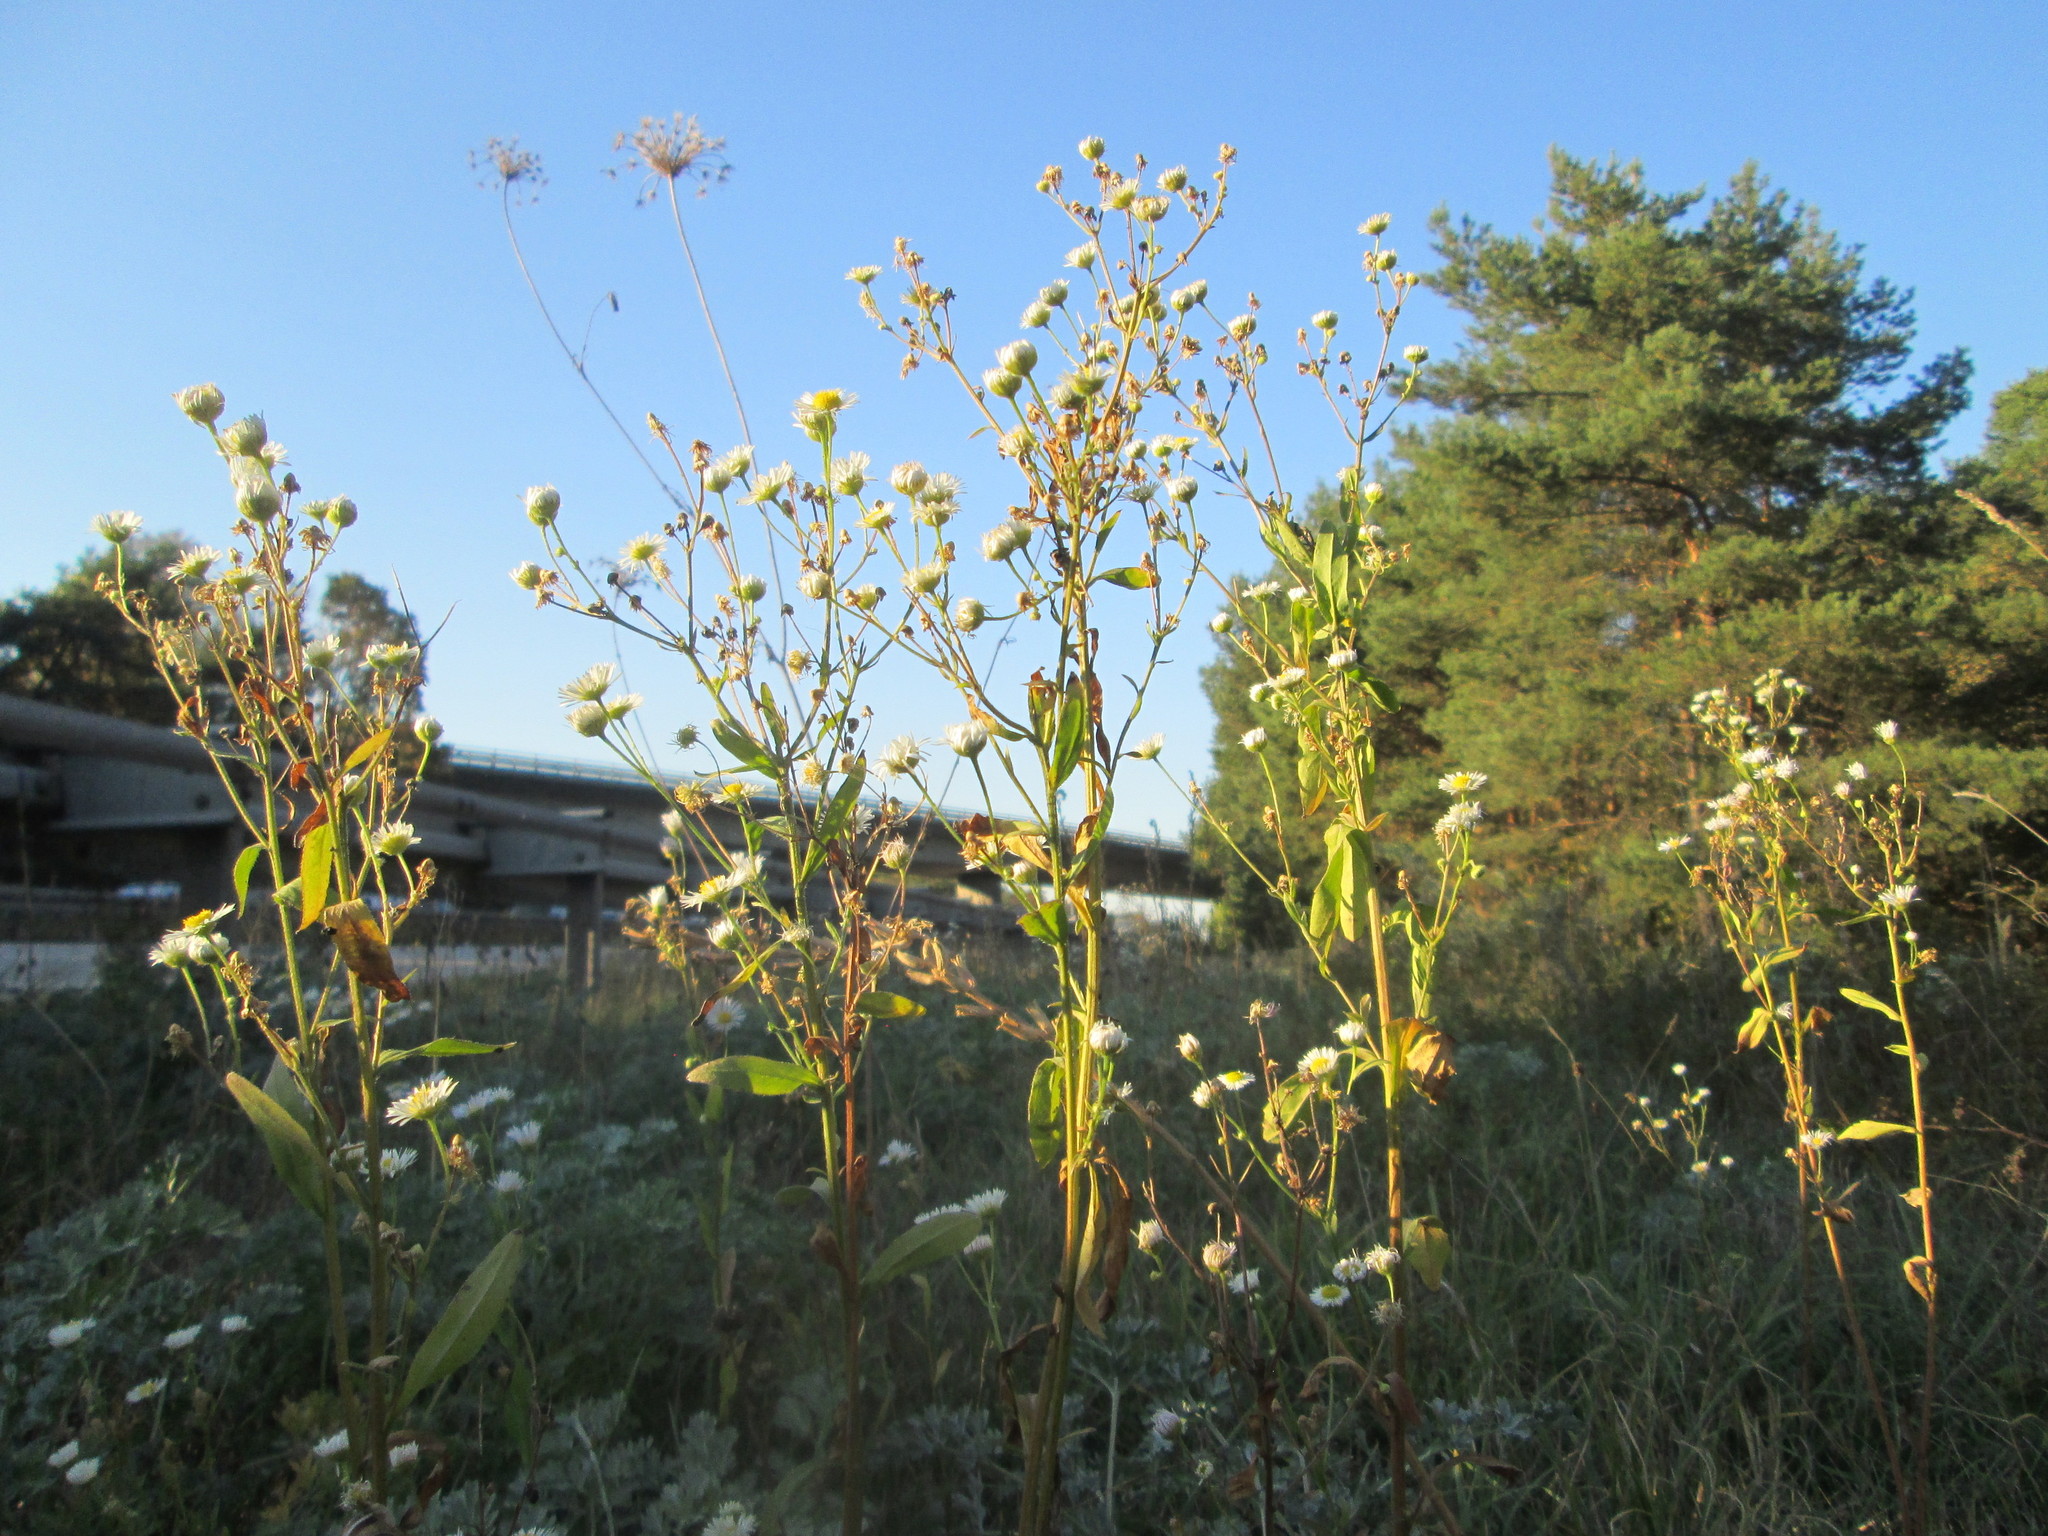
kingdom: Plantae
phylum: Tracheophyta
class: Magnoliopsida
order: Asterales
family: Asteraceae
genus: Erigeron
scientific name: Erigeron annuus
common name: Tall fleabane
